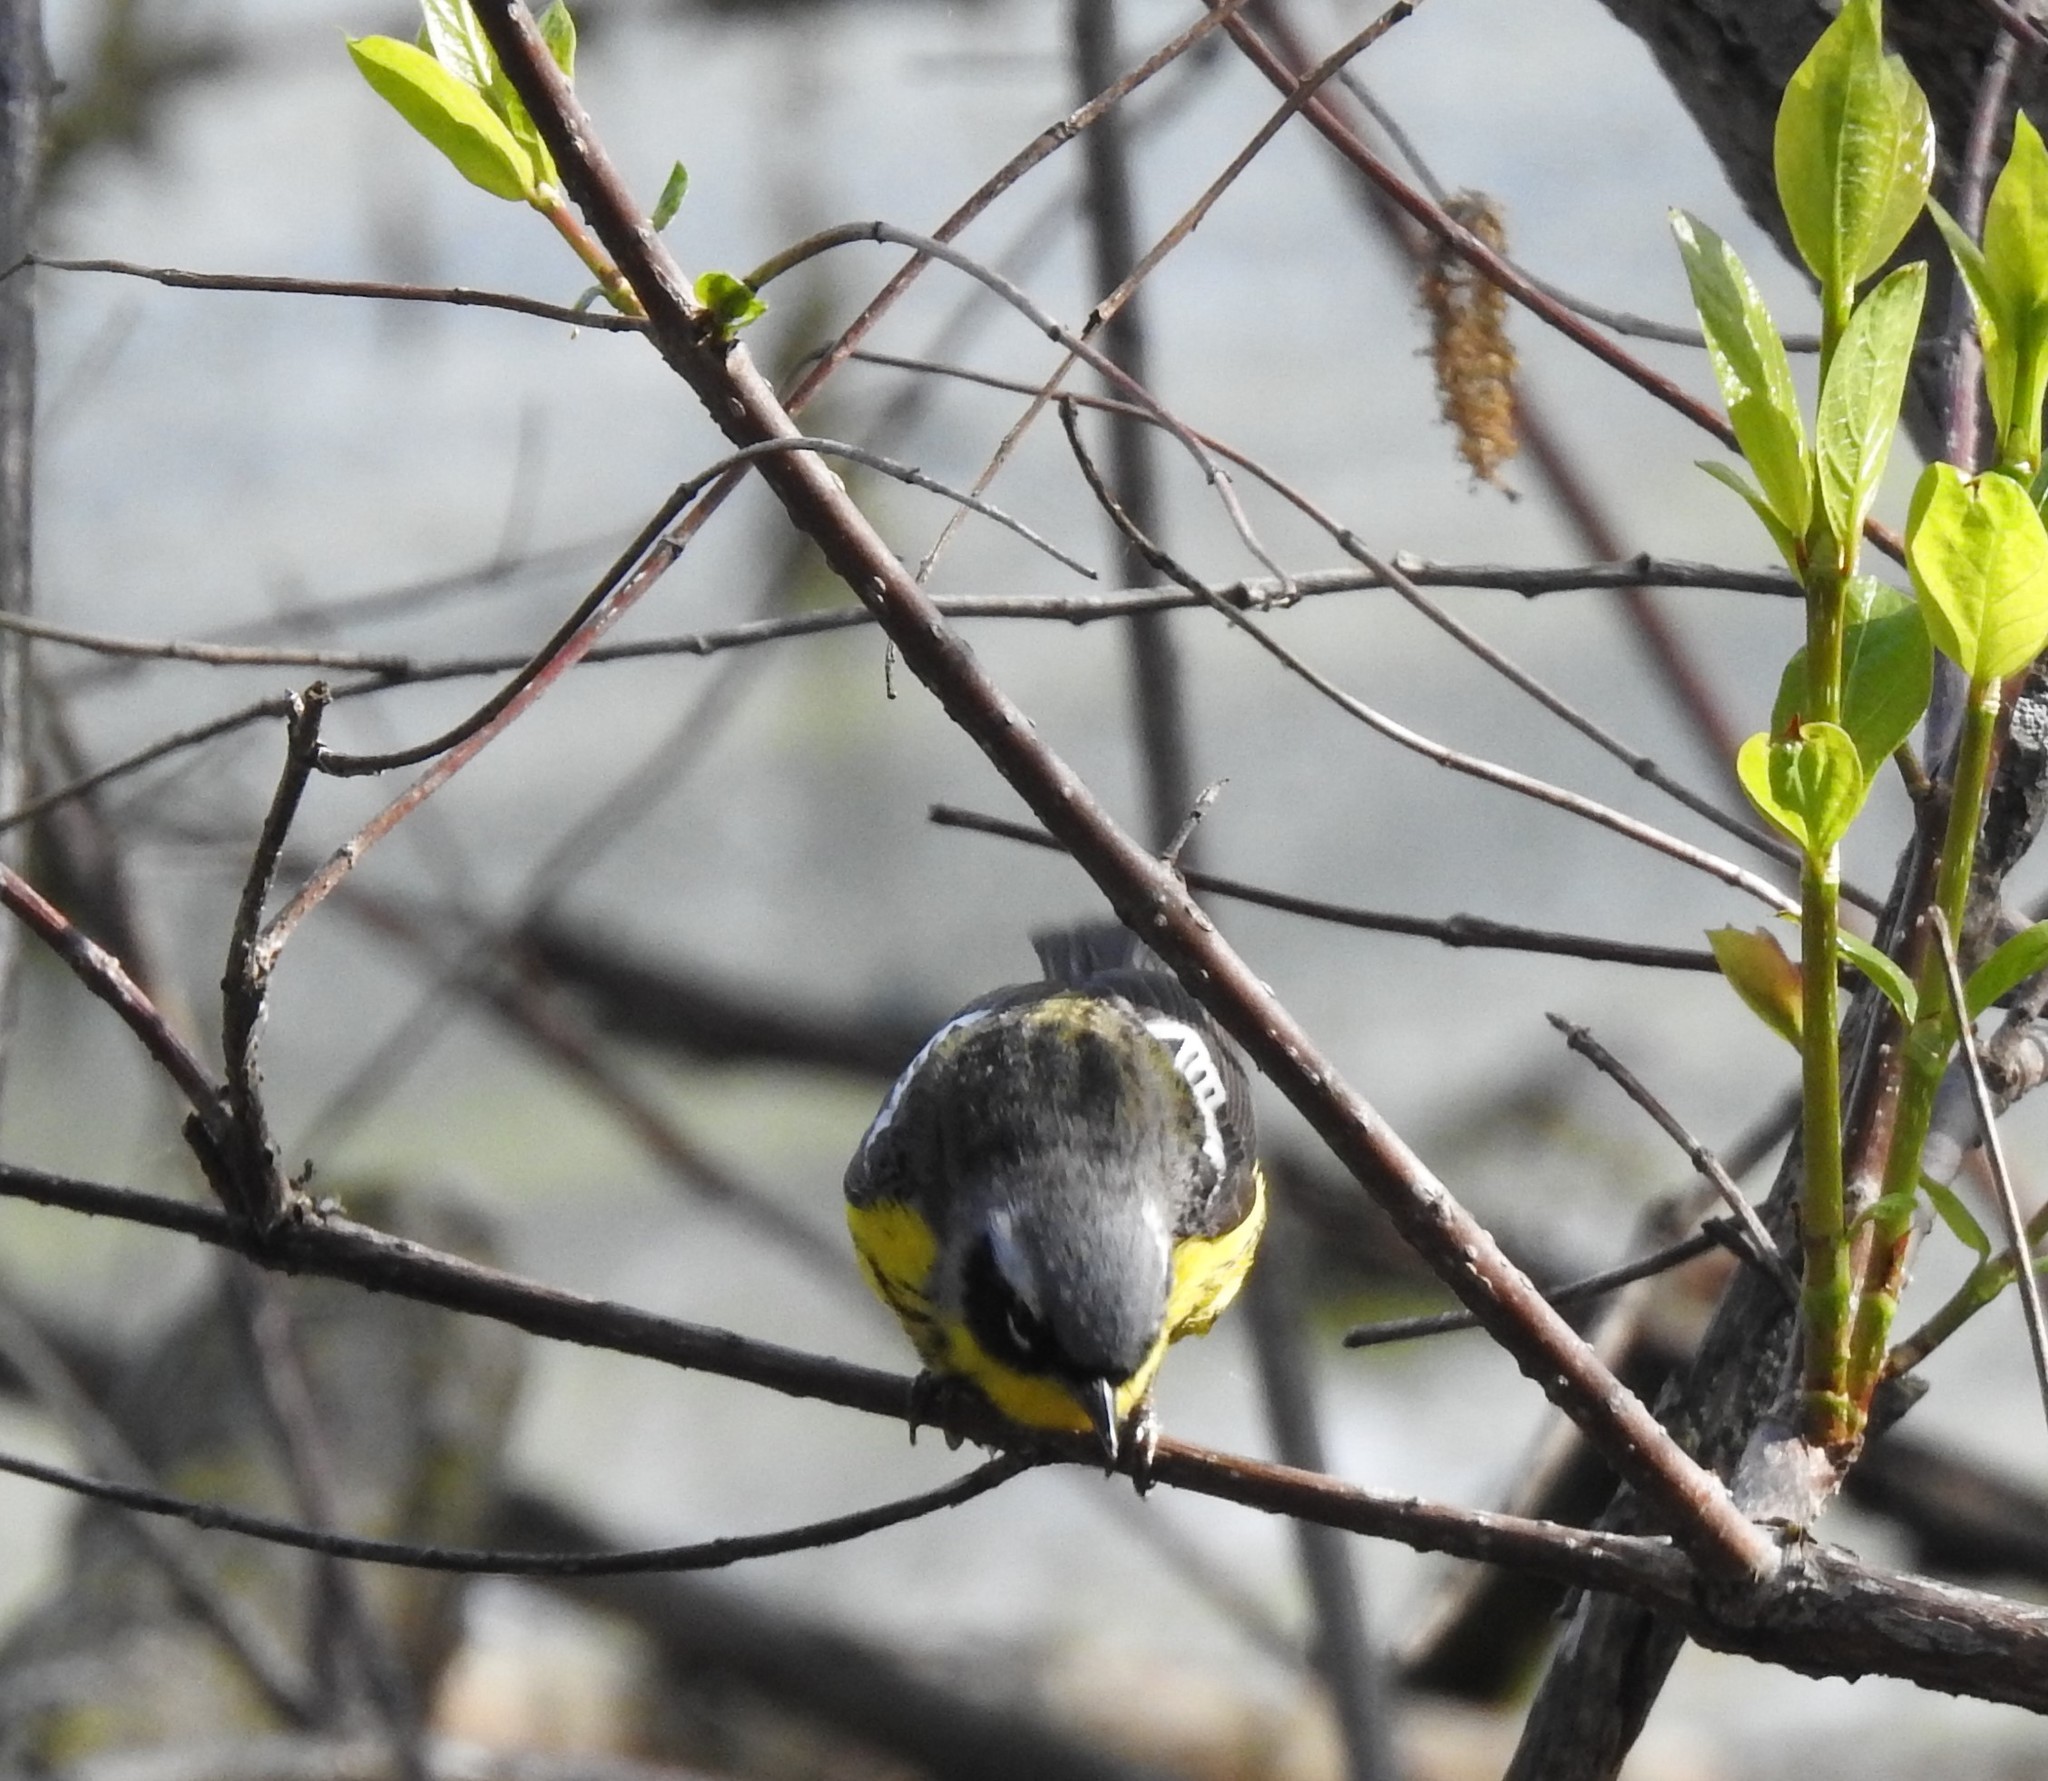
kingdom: Animalia
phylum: Chordata
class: Aves
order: Passeriformes
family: Parulidae
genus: Setophaga
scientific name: Setophaga magnolia
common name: Magnolia warbler
